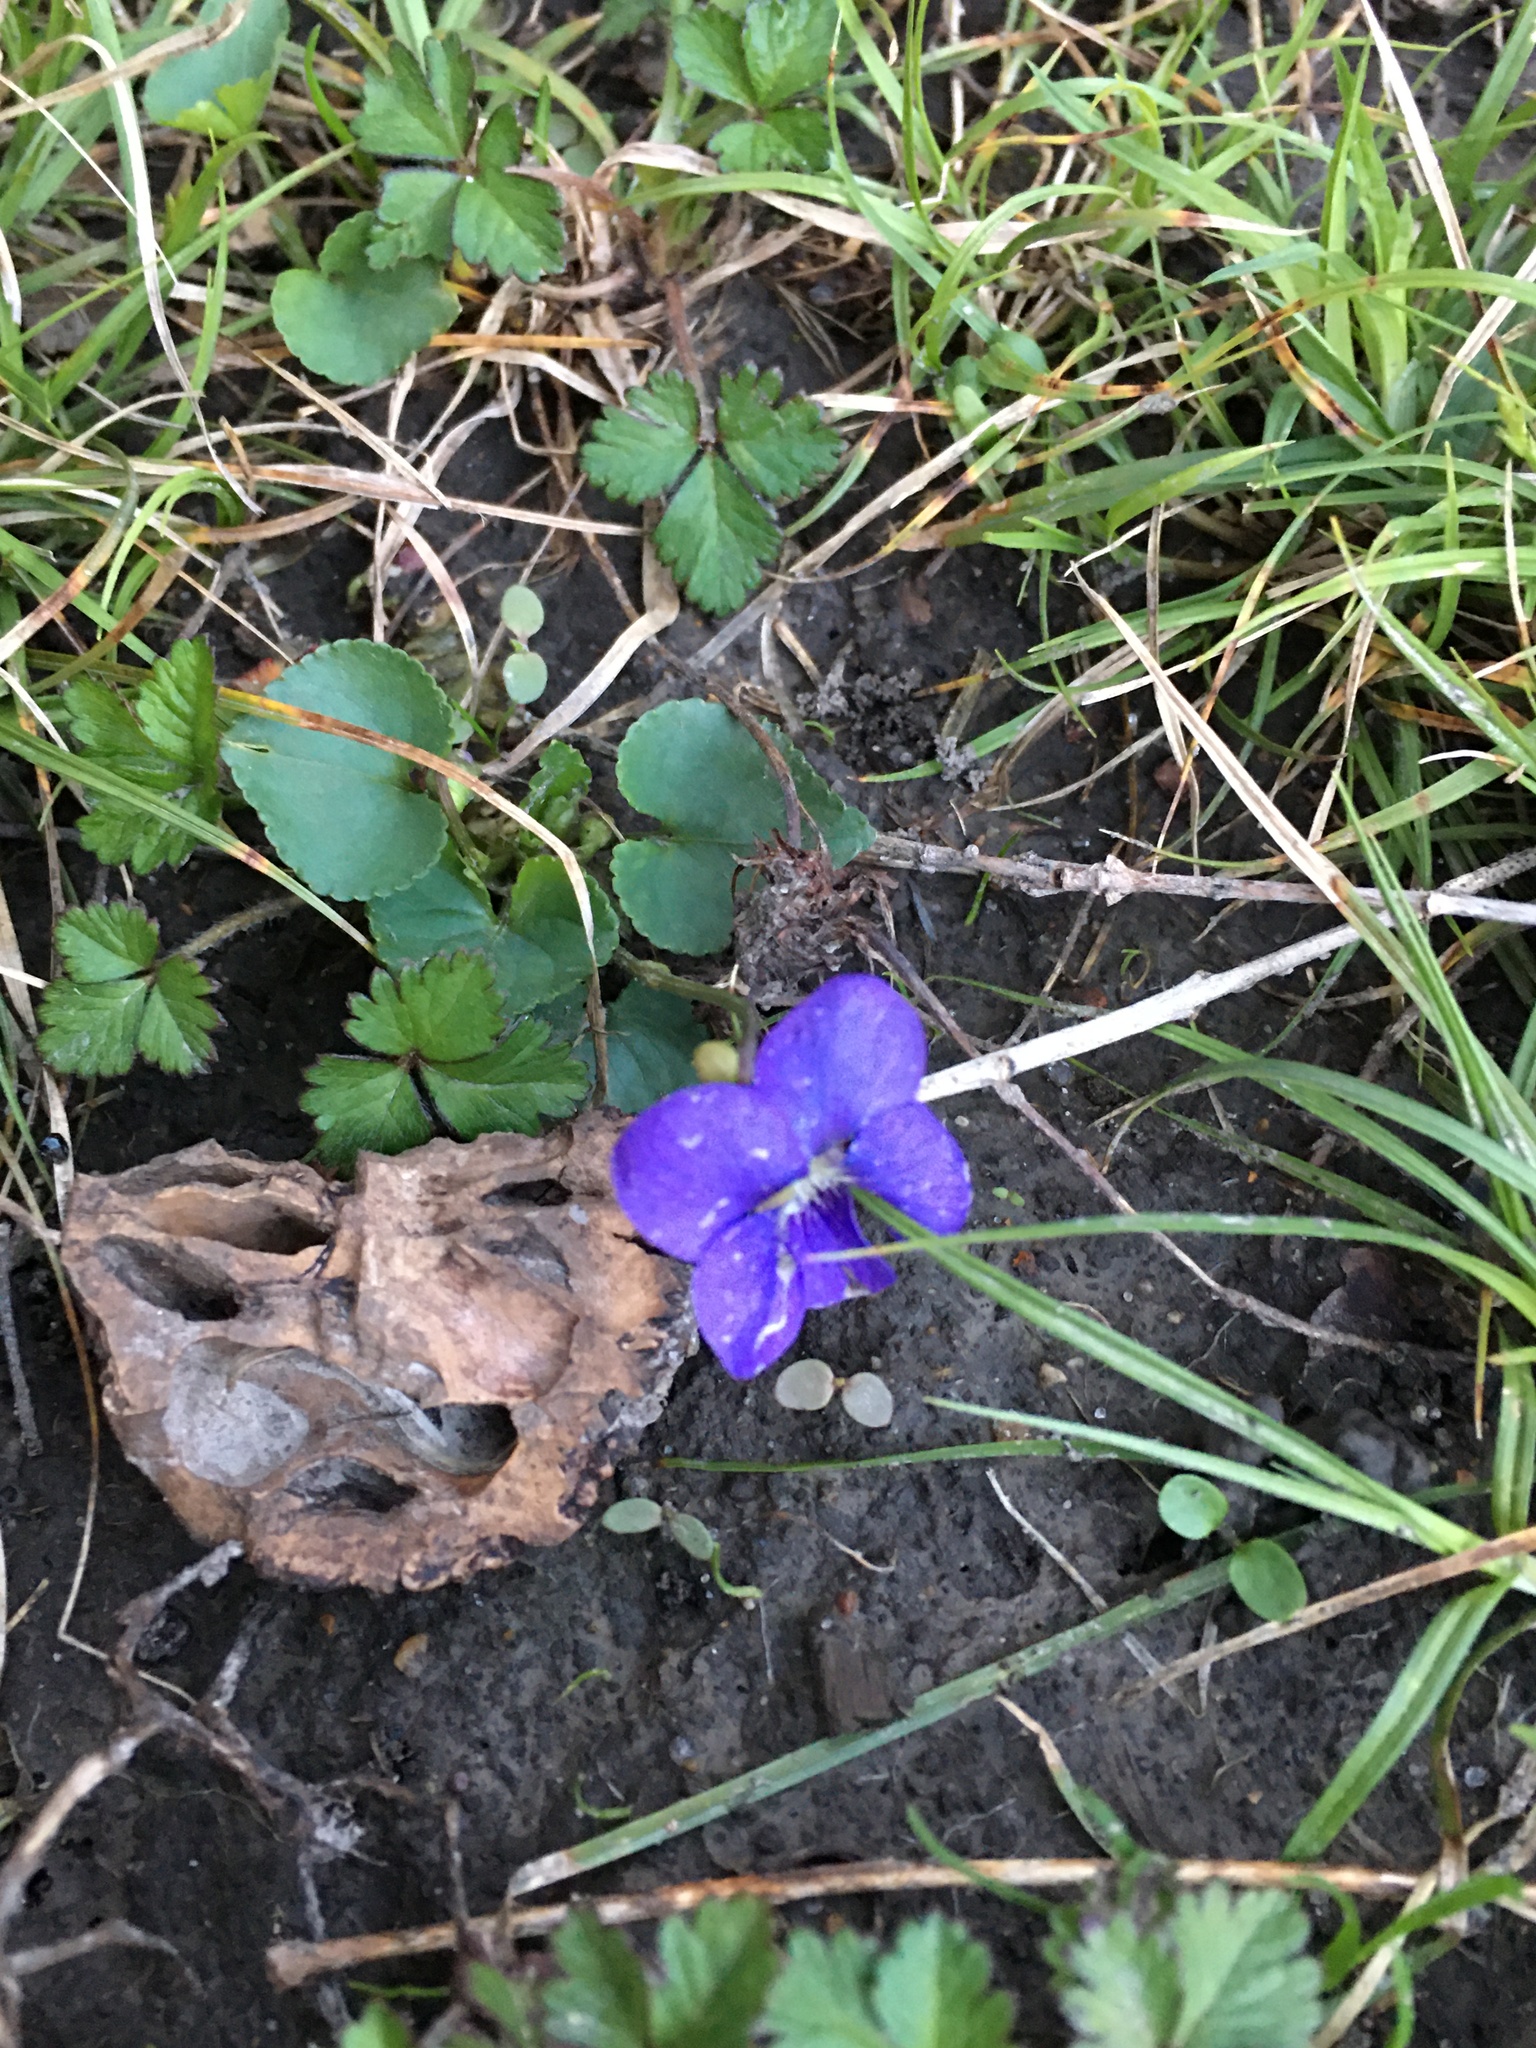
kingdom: Plantae
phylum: Tracheophyta
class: Magnoliopsida
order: Malpighiales
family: Violaceae
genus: Viola
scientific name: Viola sororia
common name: Dooryard violet
